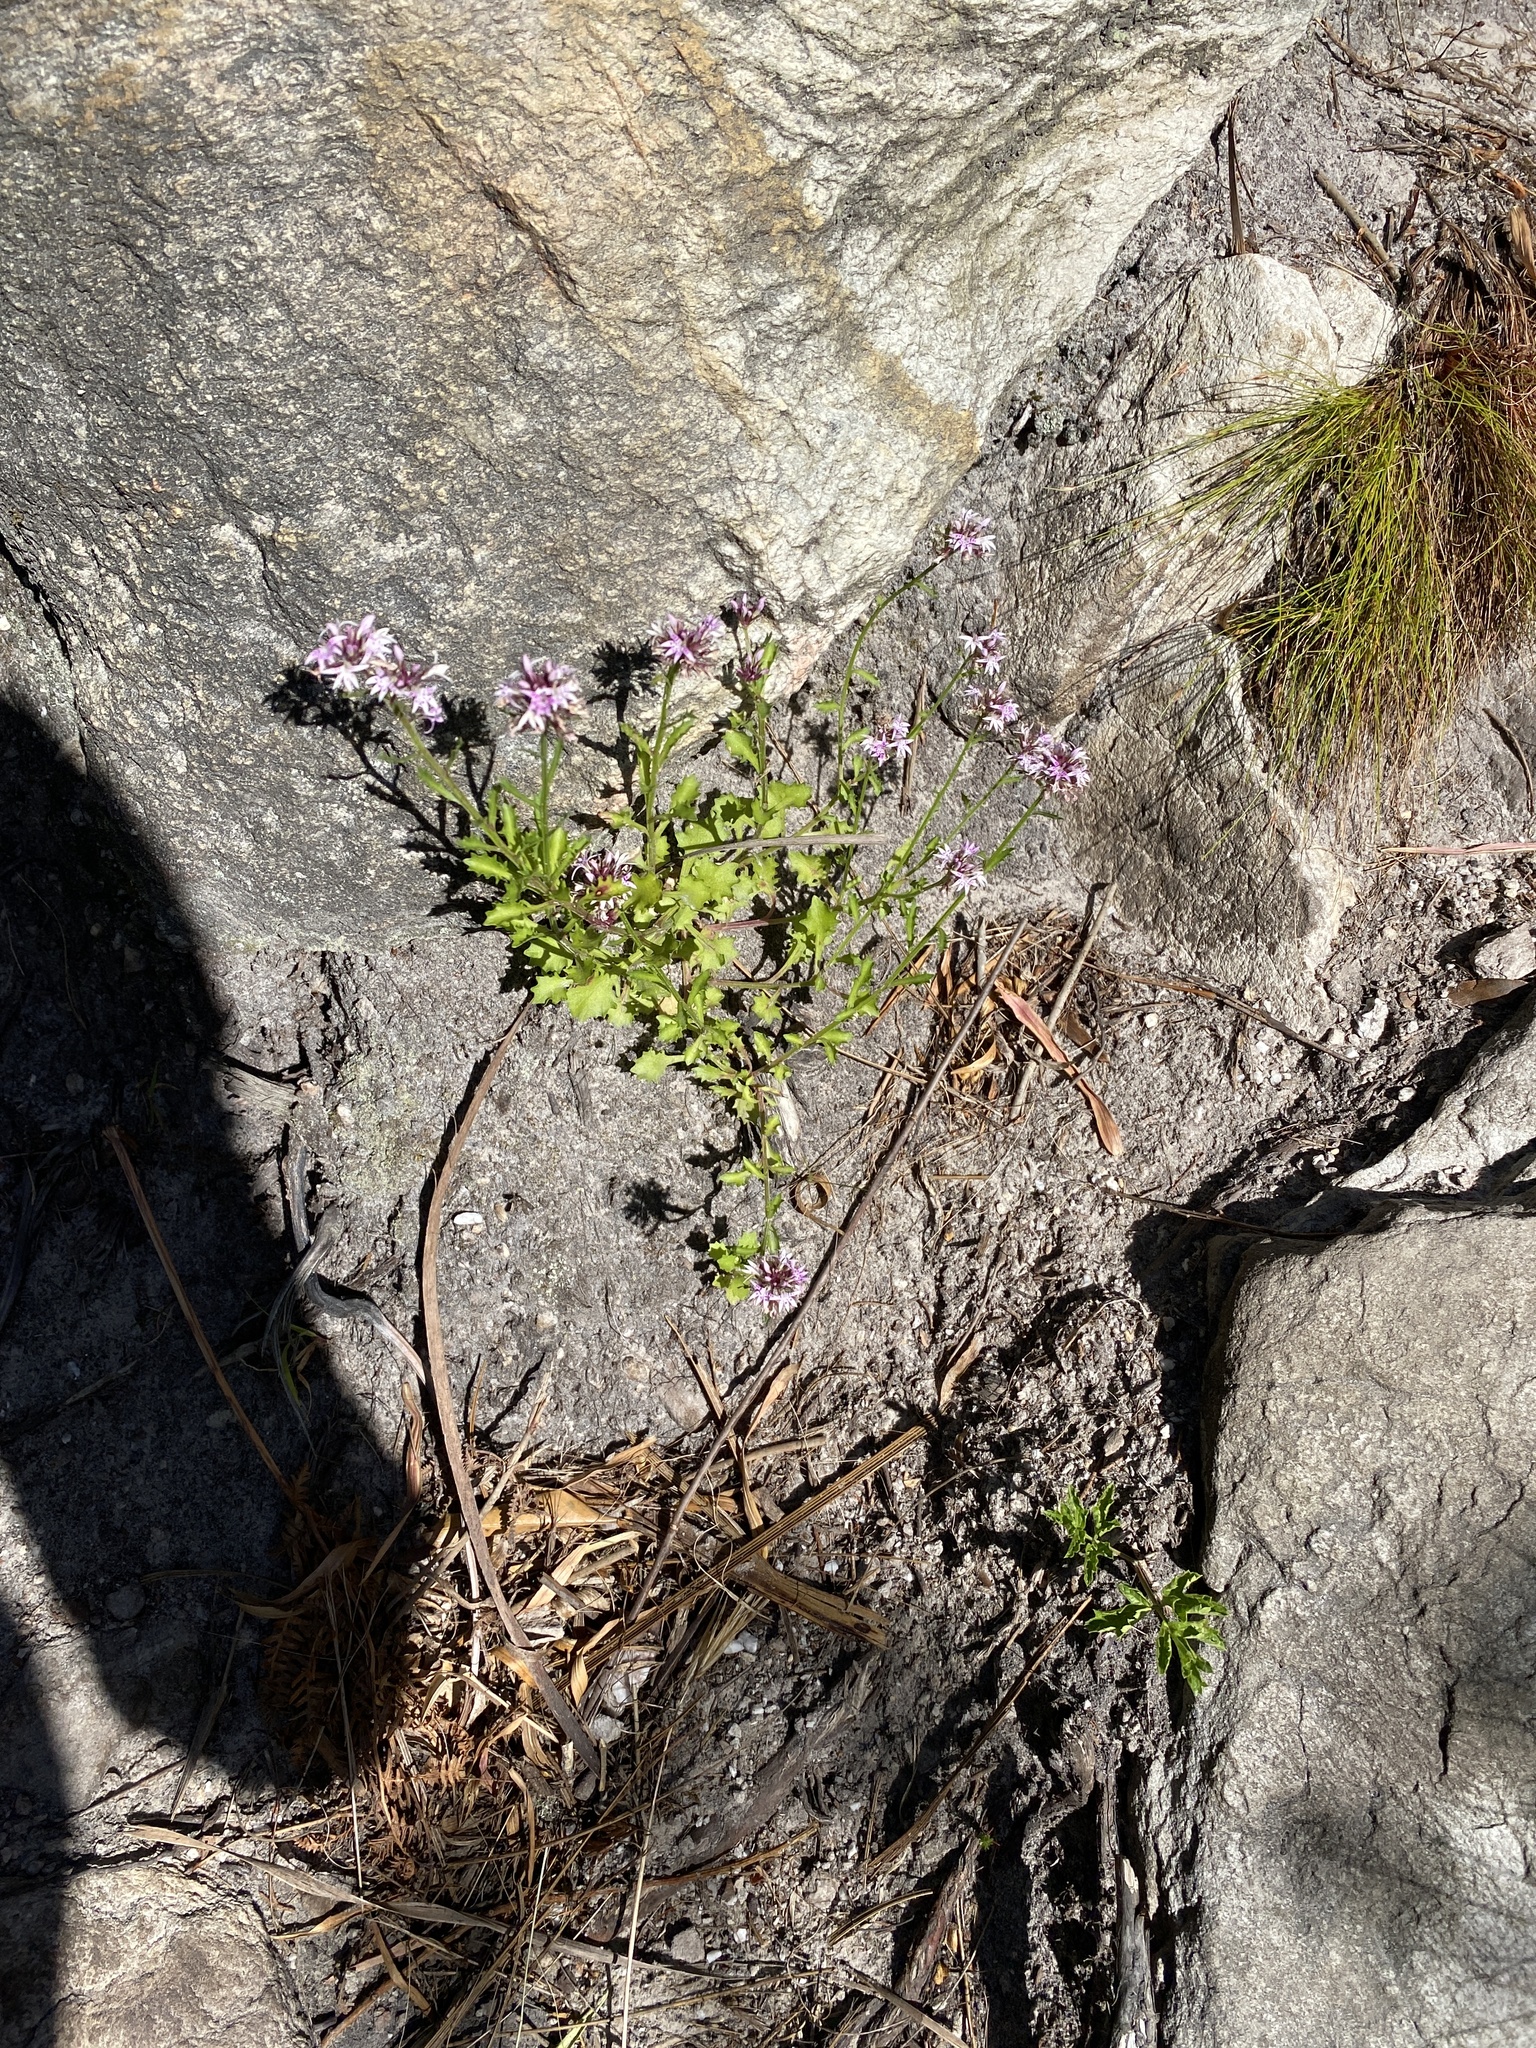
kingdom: Plantae
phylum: Tracheophyta
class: Magnoliopsida
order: Asterales
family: Campanulaceae
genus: Lobelia
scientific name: Lobelia jasionoides
